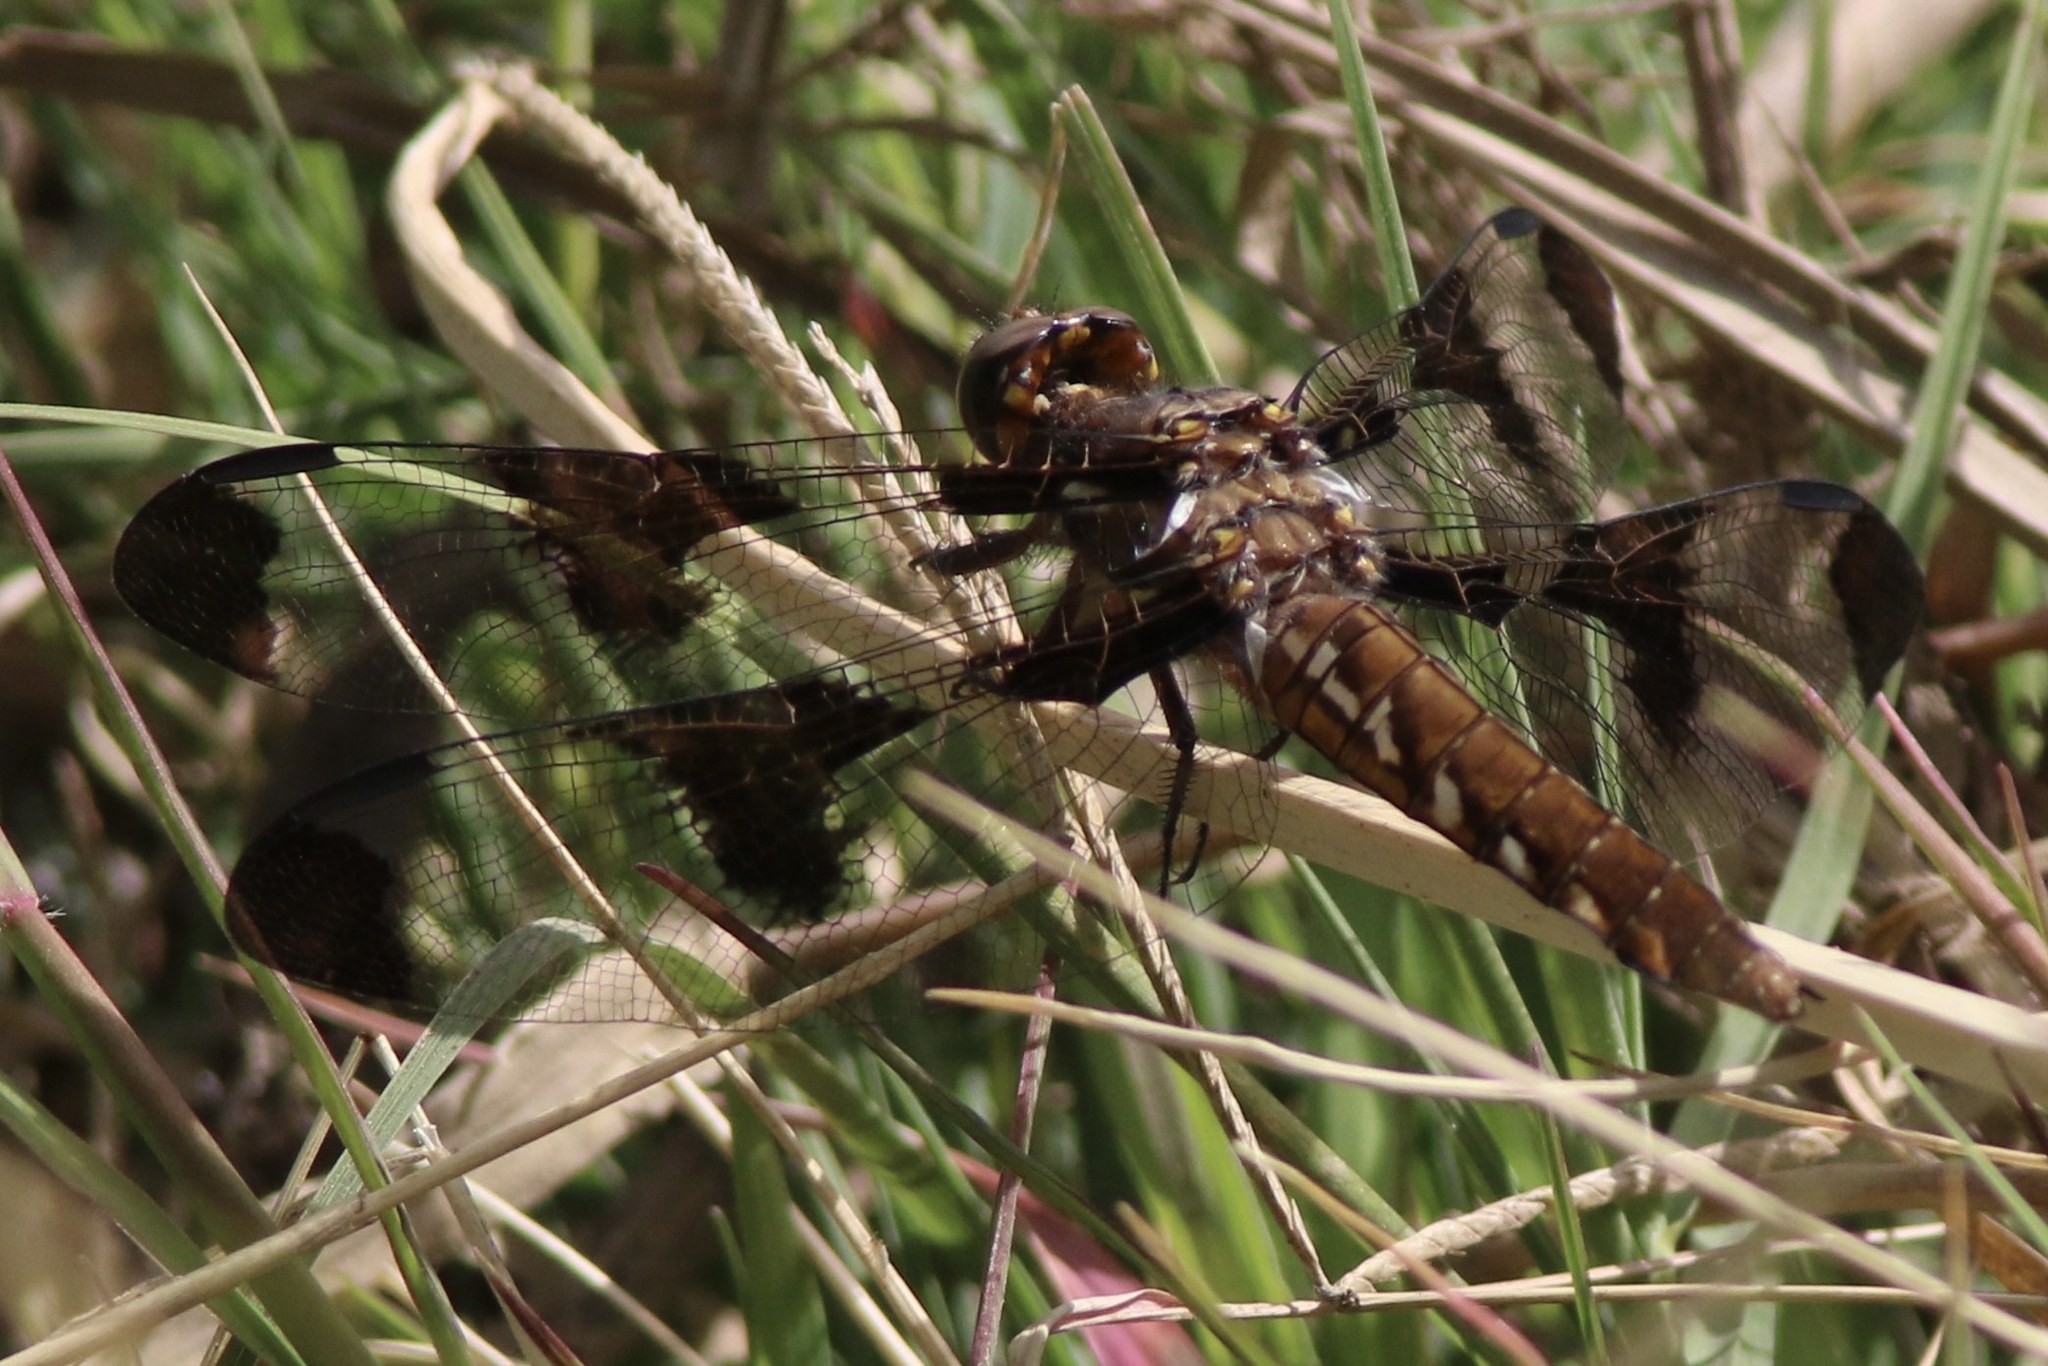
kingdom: Animalia
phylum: Arthropoda
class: Insecta
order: Odonata
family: Libellulidae
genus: Plathemis
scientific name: Plathemis lydia
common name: Common whitetail
